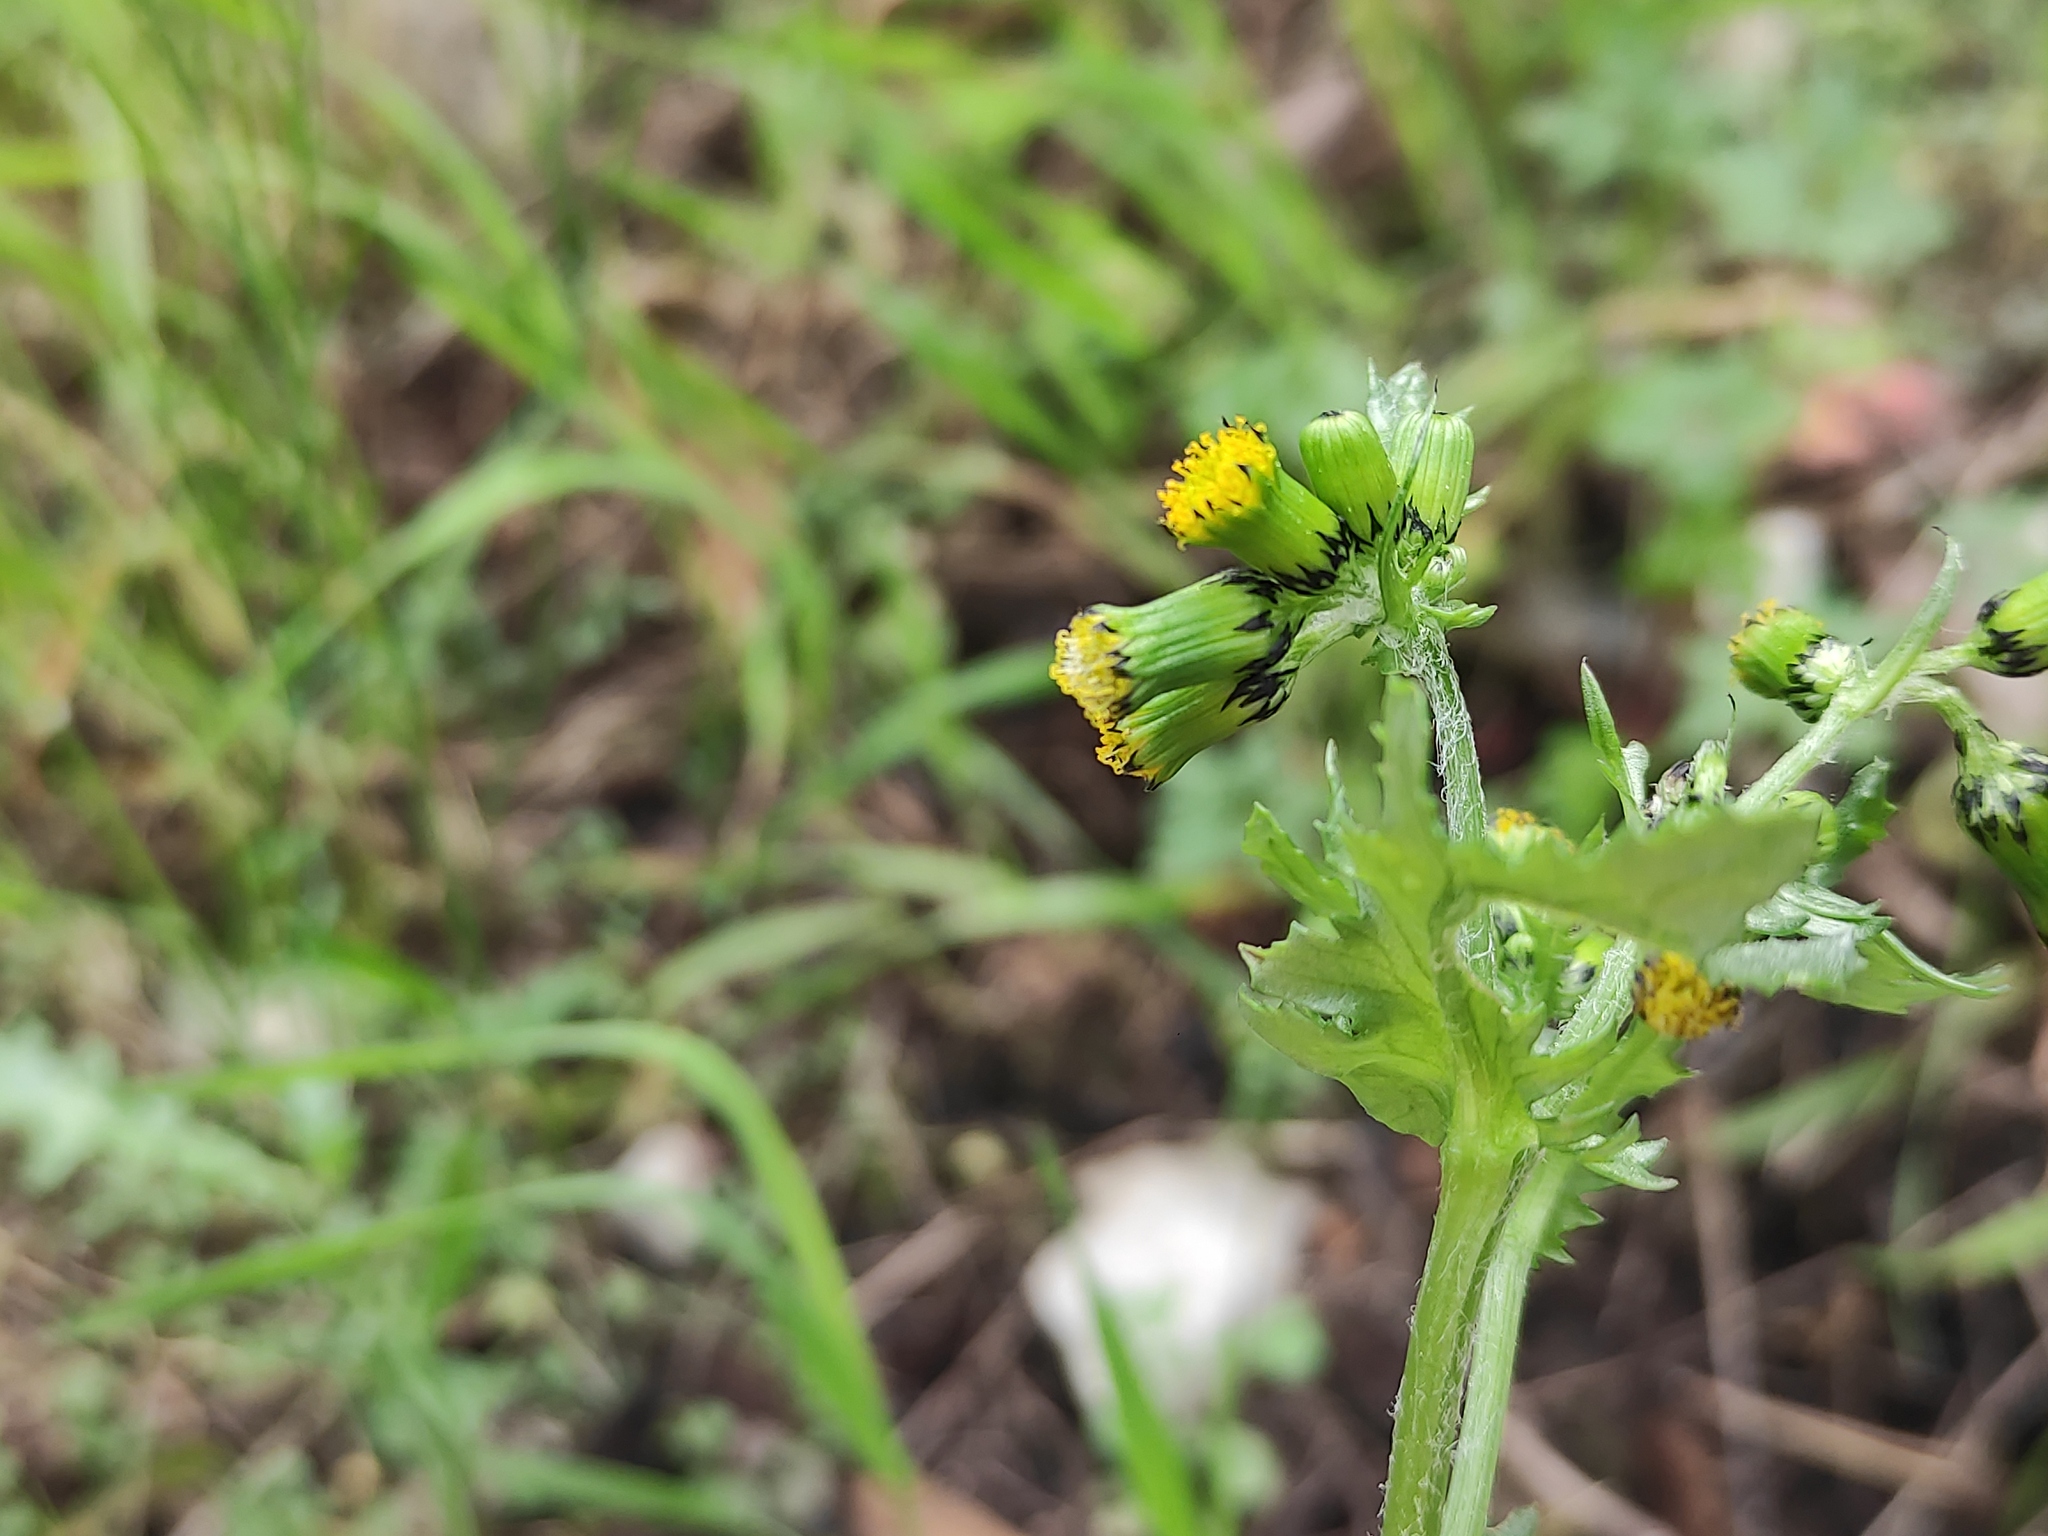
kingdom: Plantae
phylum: Tracheophyta
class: Magnoliopsida
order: Asterales
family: Asteraceae
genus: Senecio
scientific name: Senecio vulgaris
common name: Old-man-in-the-spring
